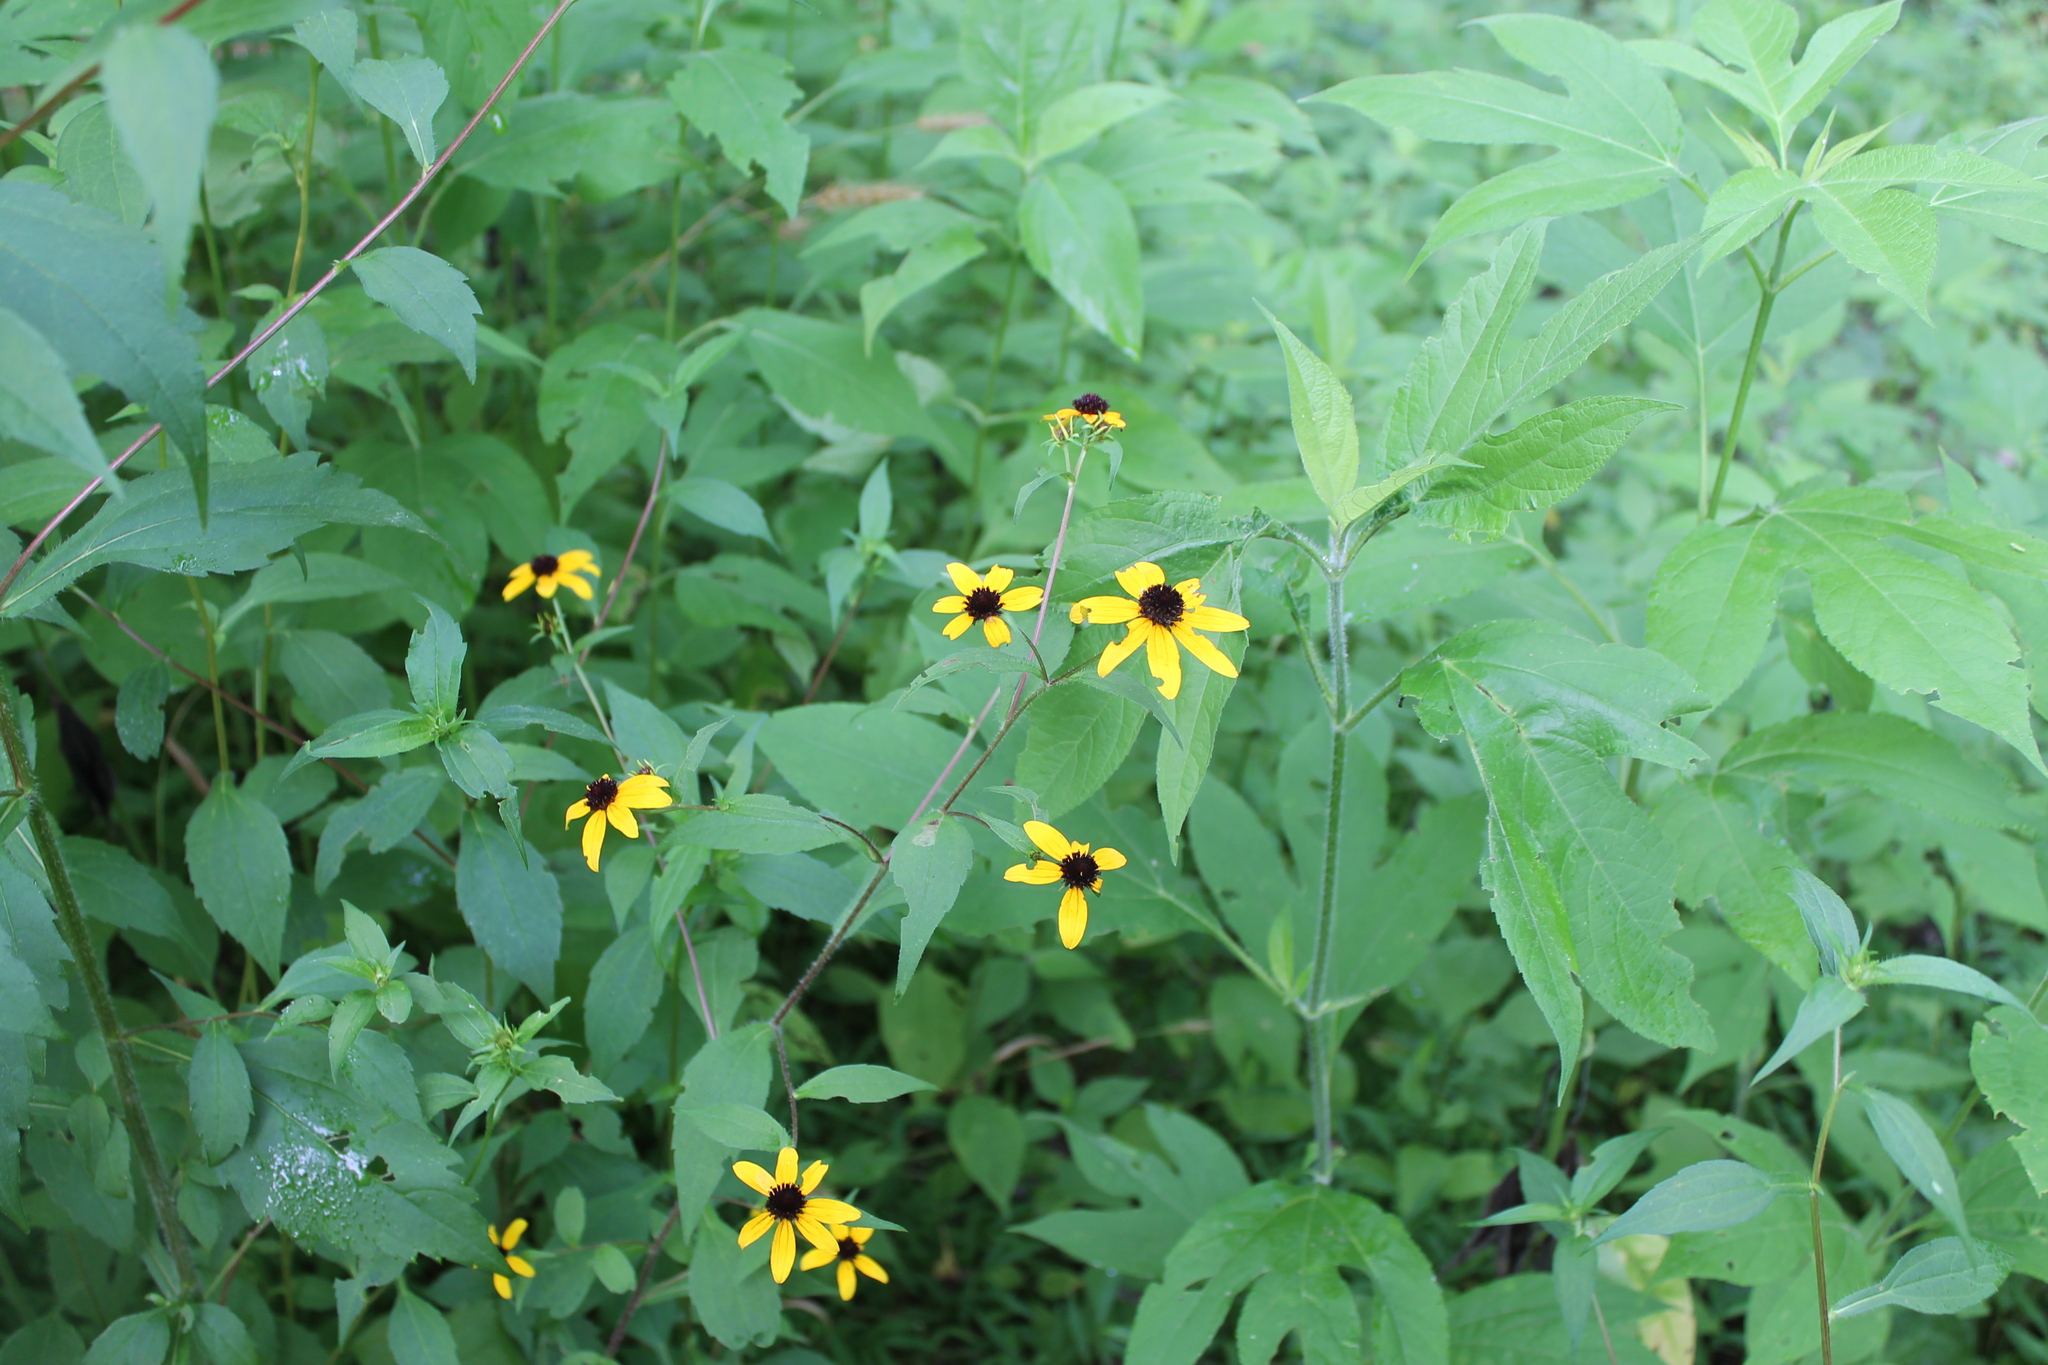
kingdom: Plantae
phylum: Tracheophyta
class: Magnoliopsida
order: Asterales
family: Asteraceae
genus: Rudbeckia
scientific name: Rudbeckia triloba
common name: Thin-leaved coneflower
